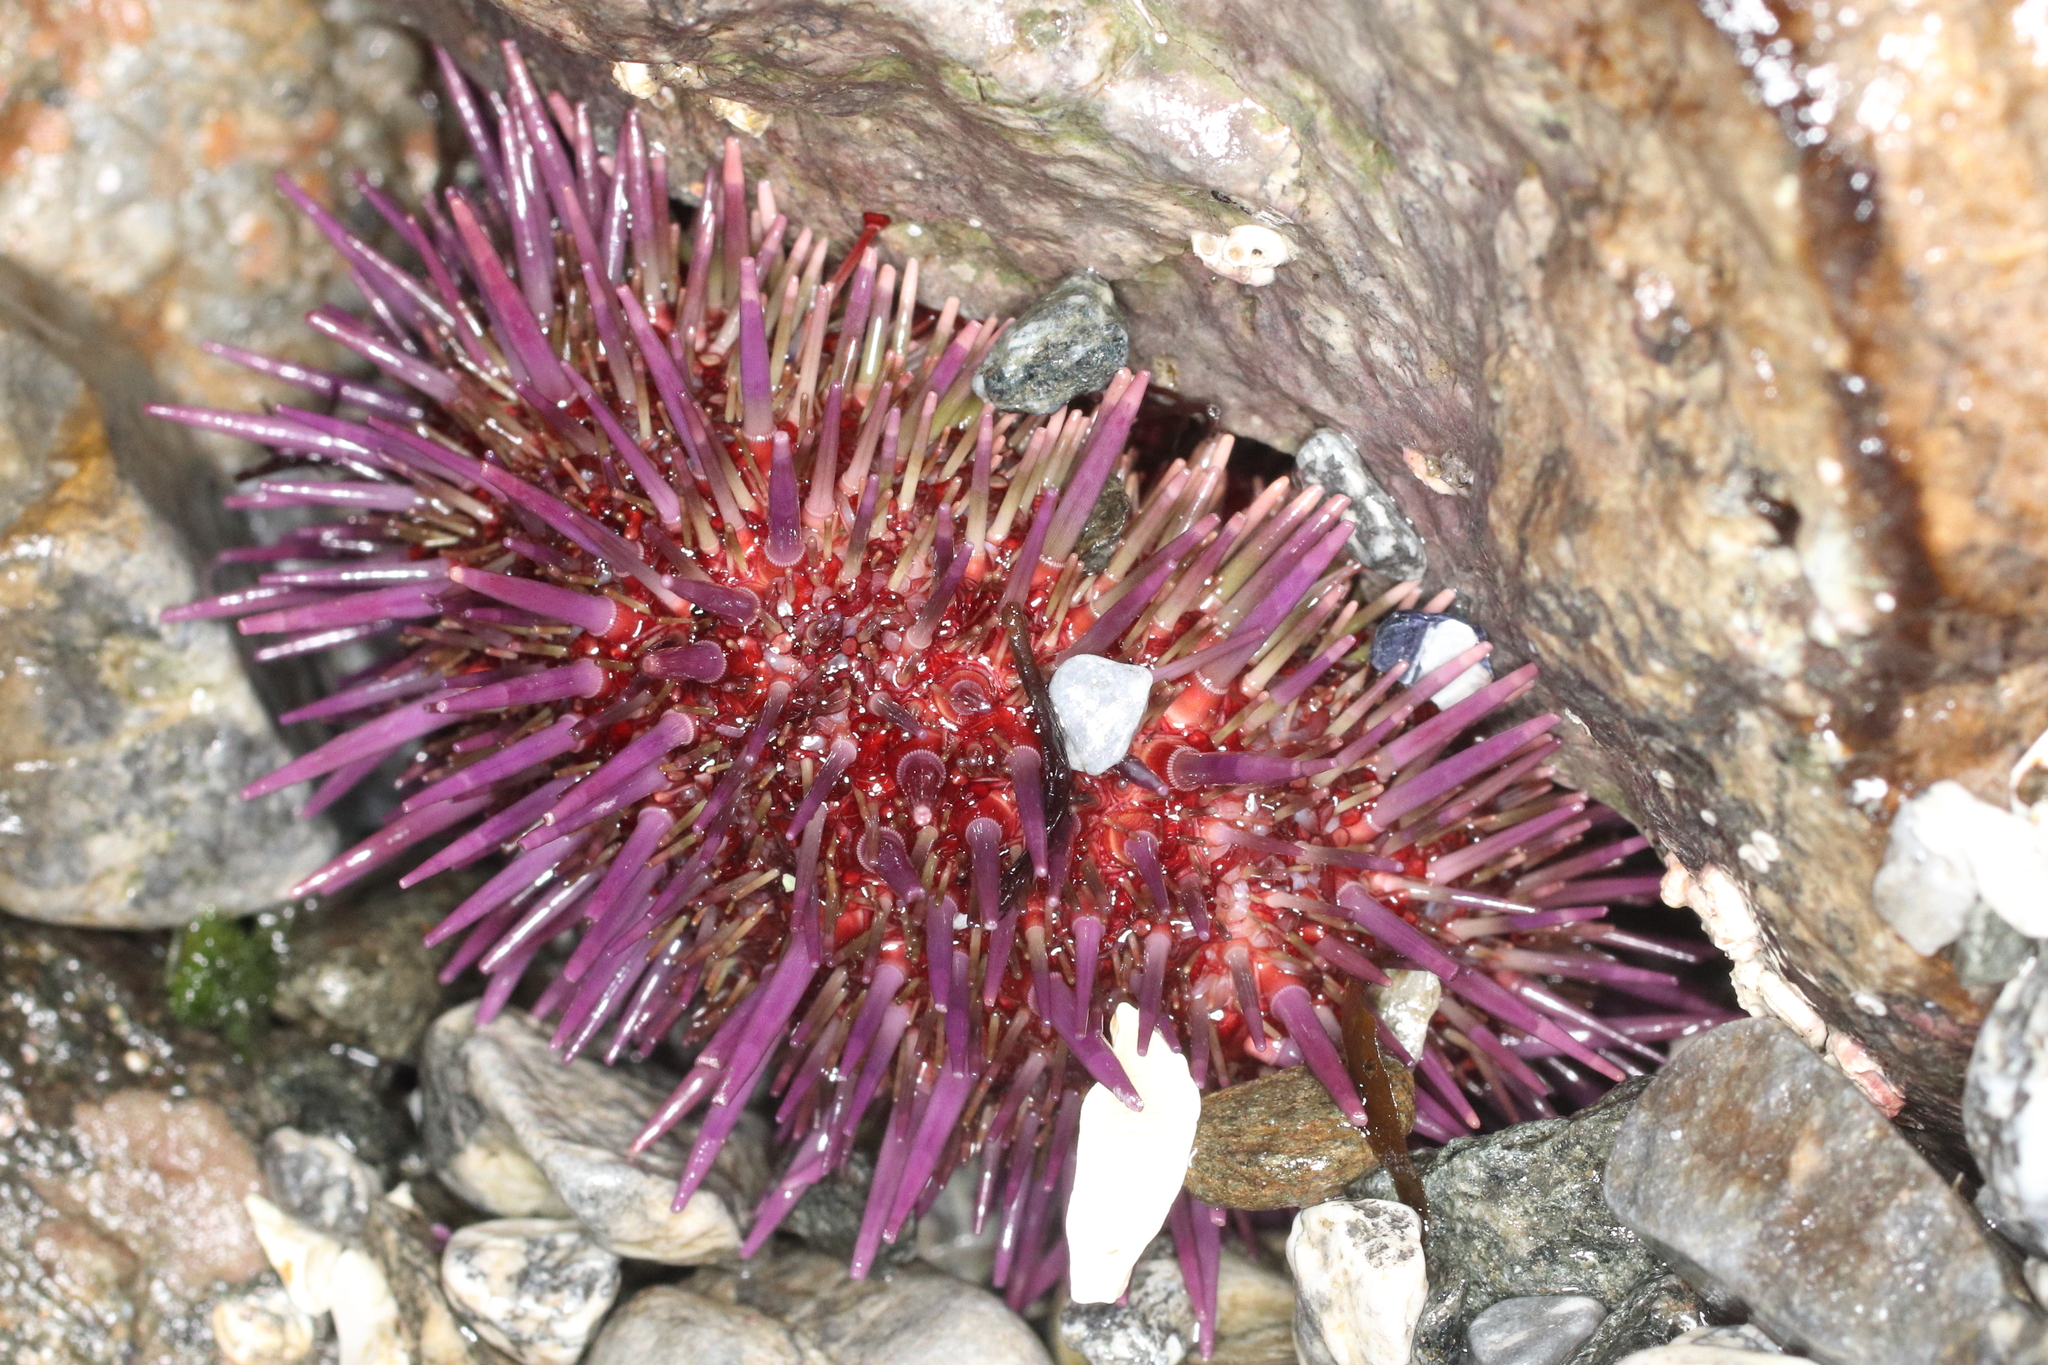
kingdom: Animalia
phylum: Echinodermata
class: Echinoidea
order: Camarodonta
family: Strongylocentrotidae
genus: Strongylocentrotus
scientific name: Strongylocentrotus purpuratus
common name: Purple sea urchin
